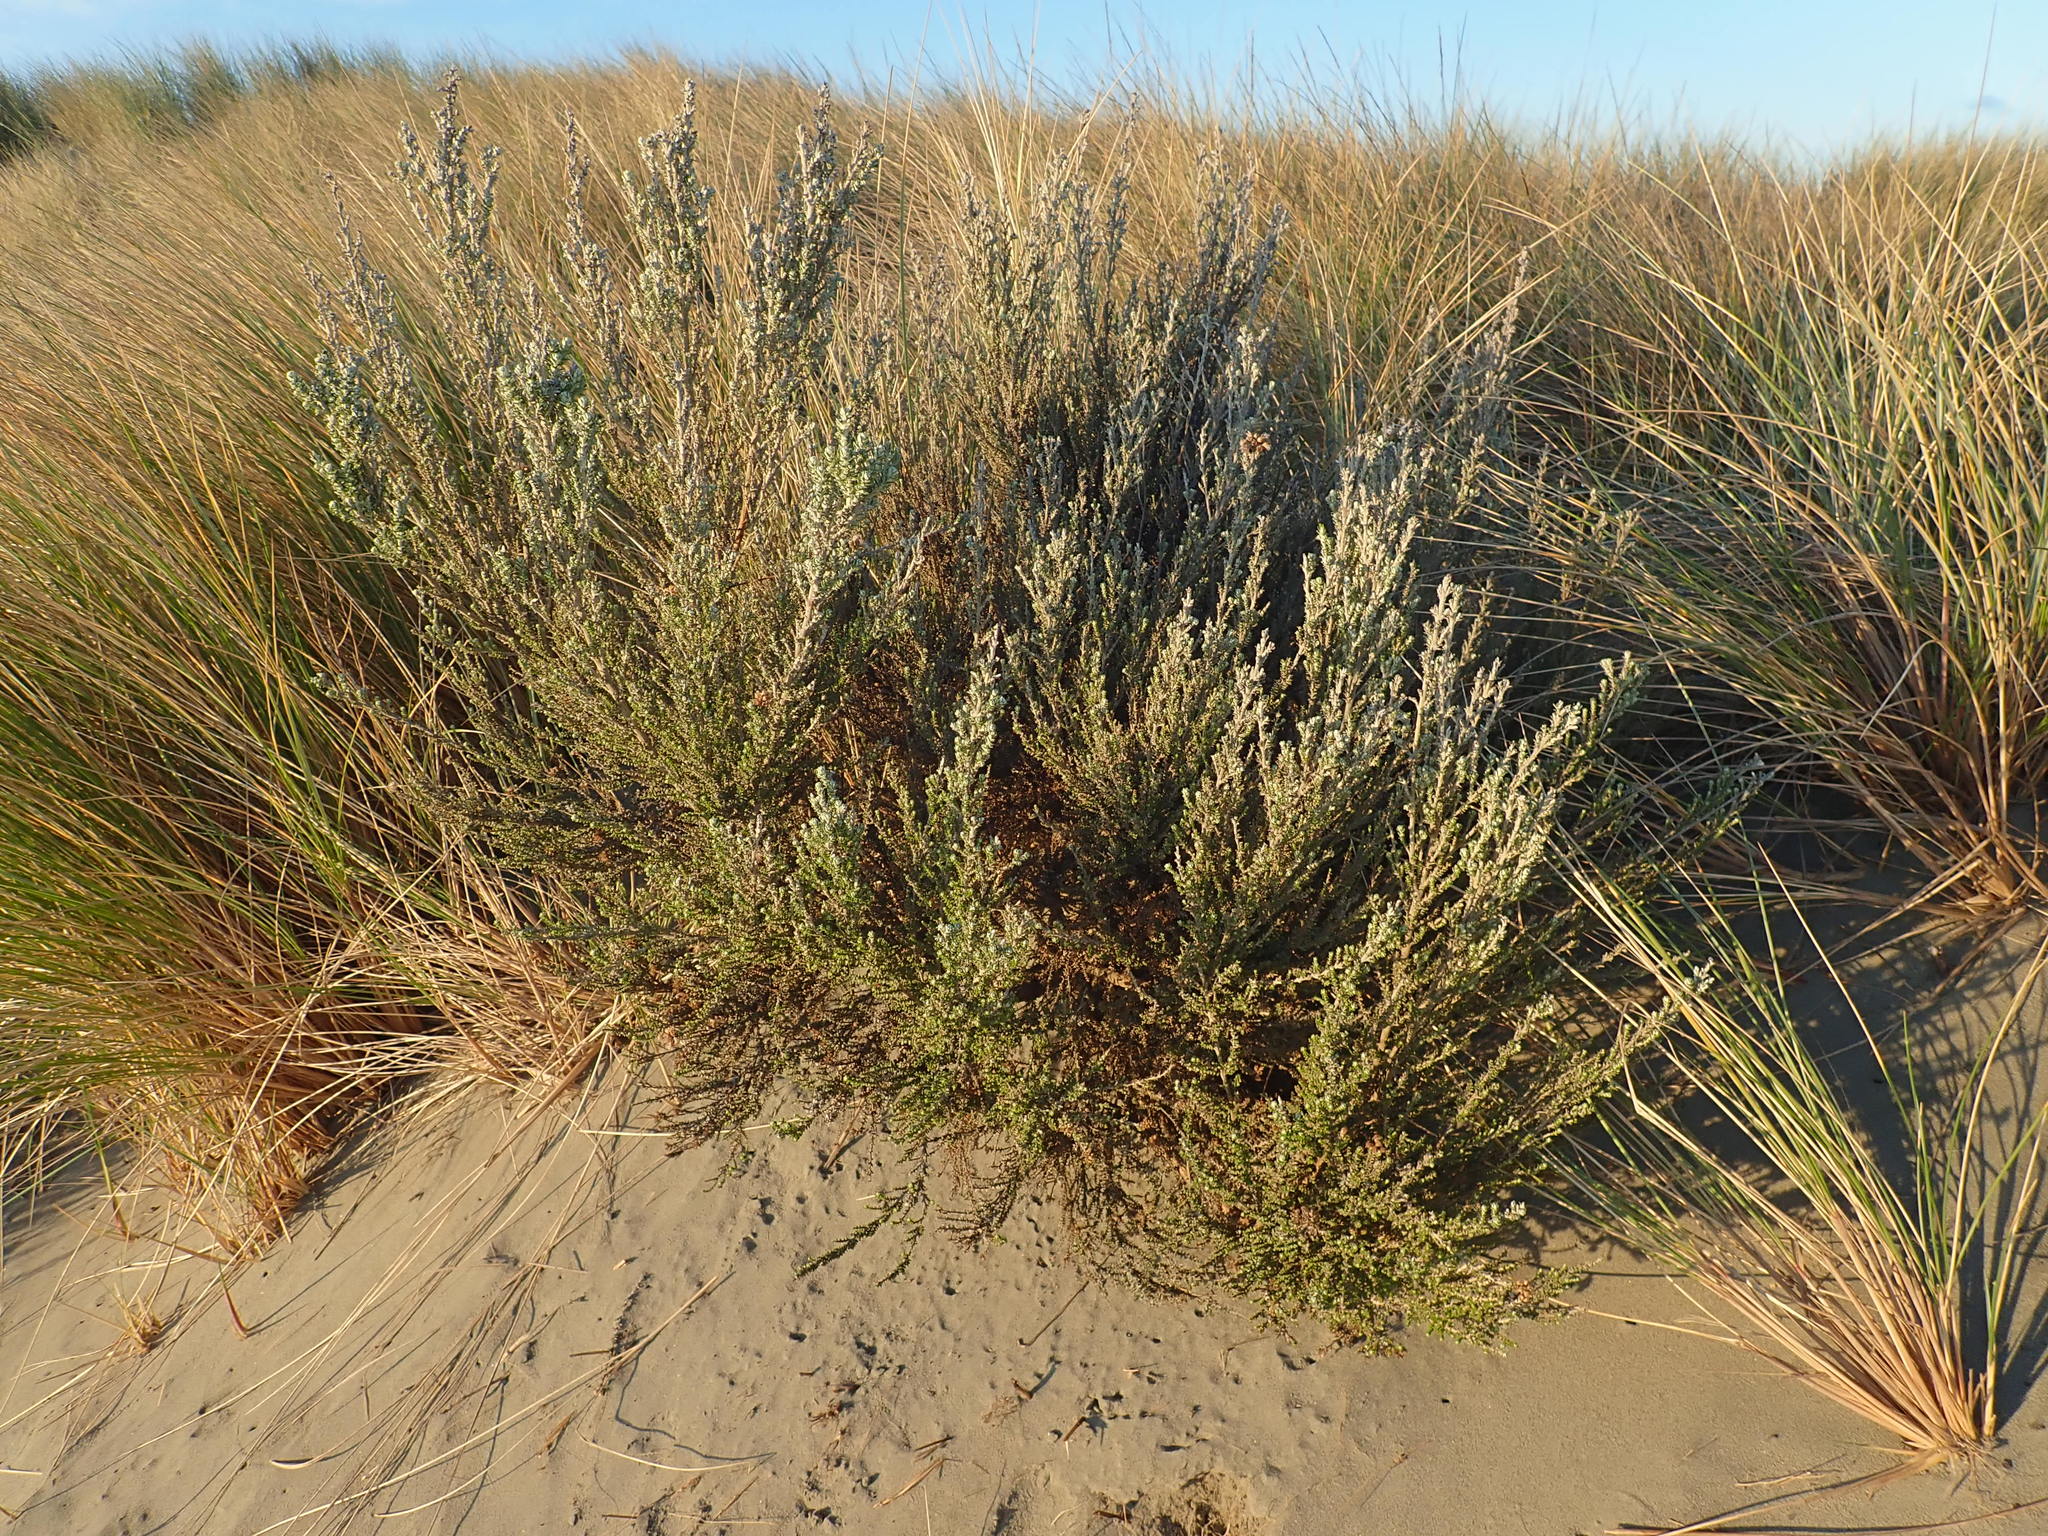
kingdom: Plantae
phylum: Tracheophyta
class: Magnoliopsida
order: Asterales
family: Asteraceae
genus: Ozothamnus
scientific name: Ozothamnus leptophyllus
